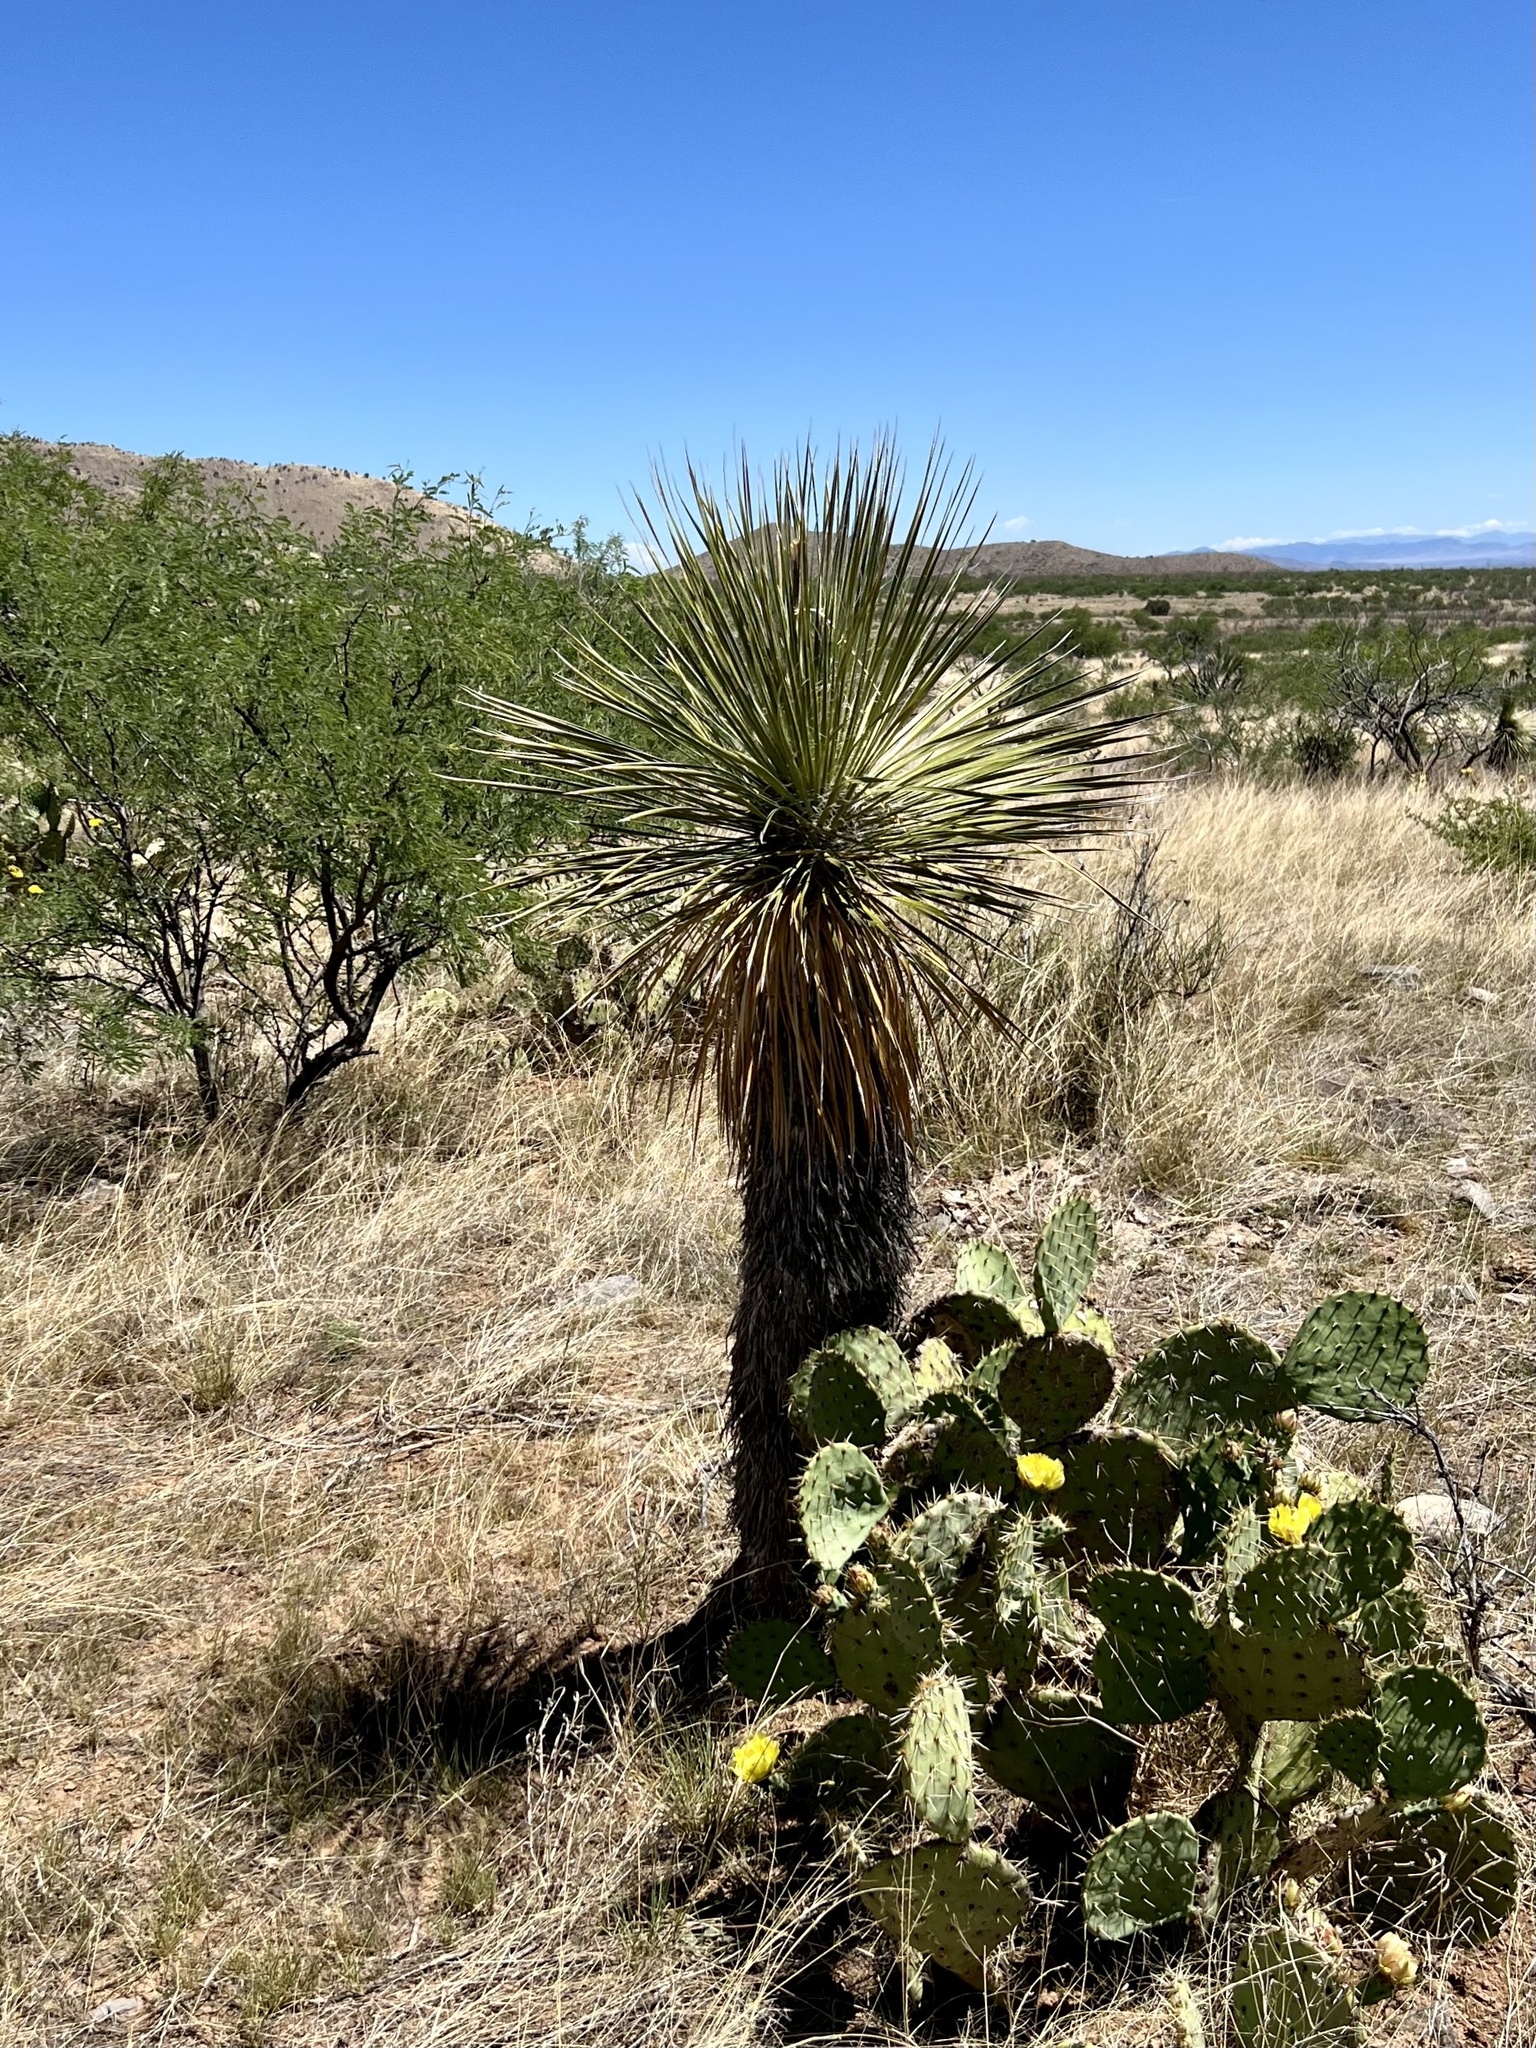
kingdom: Plantae
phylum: Tracheophyta
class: Liliopsida
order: Asparagales
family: Asparagaceae
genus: Yucca
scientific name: Yucca elata
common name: Palmella
